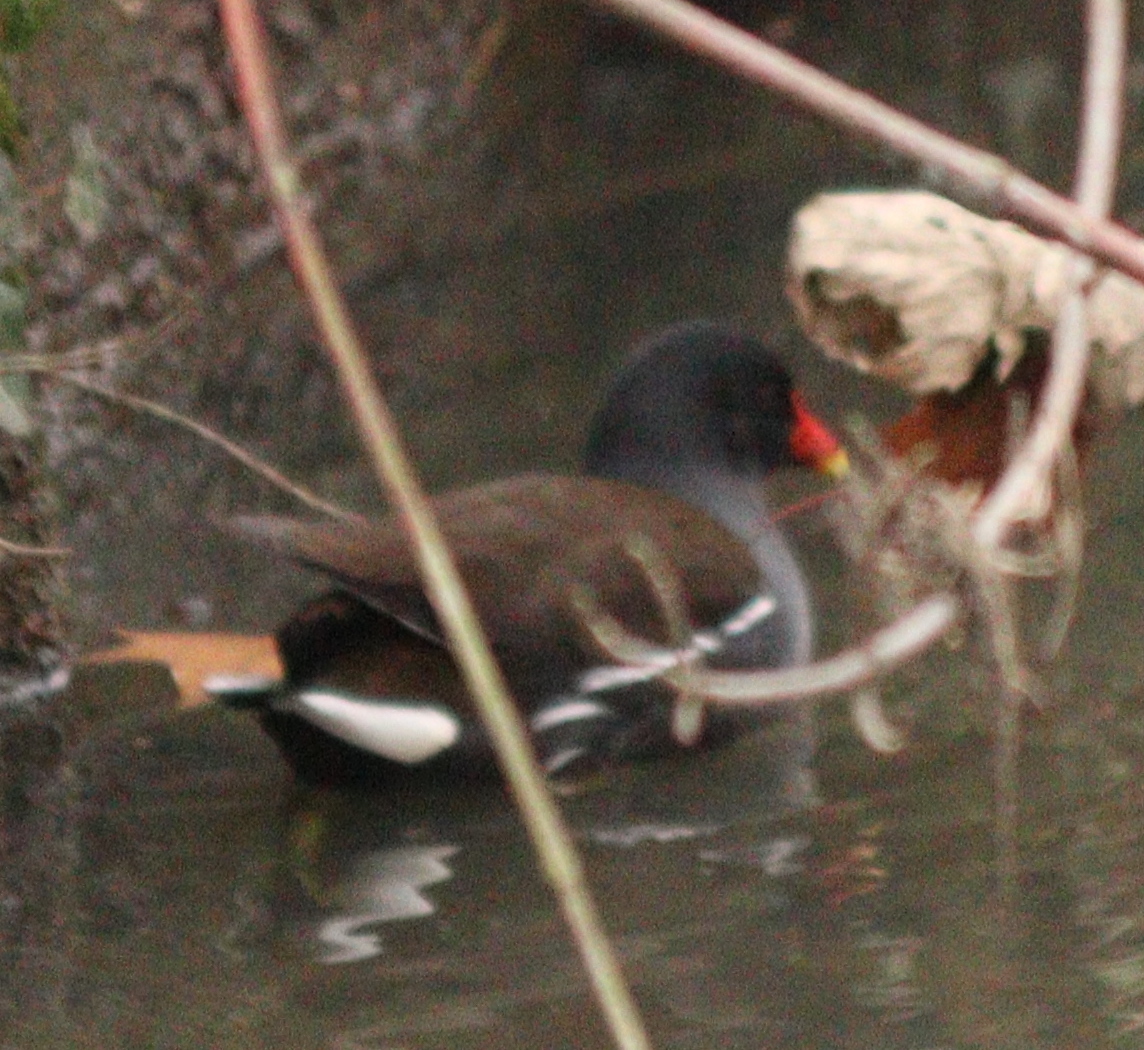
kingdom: Animalia
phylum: Chordata
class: Aves
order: Gruiformes
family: Rallidae
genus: Gallinula
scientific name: Gallinula chloropus
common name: Common moorhen
